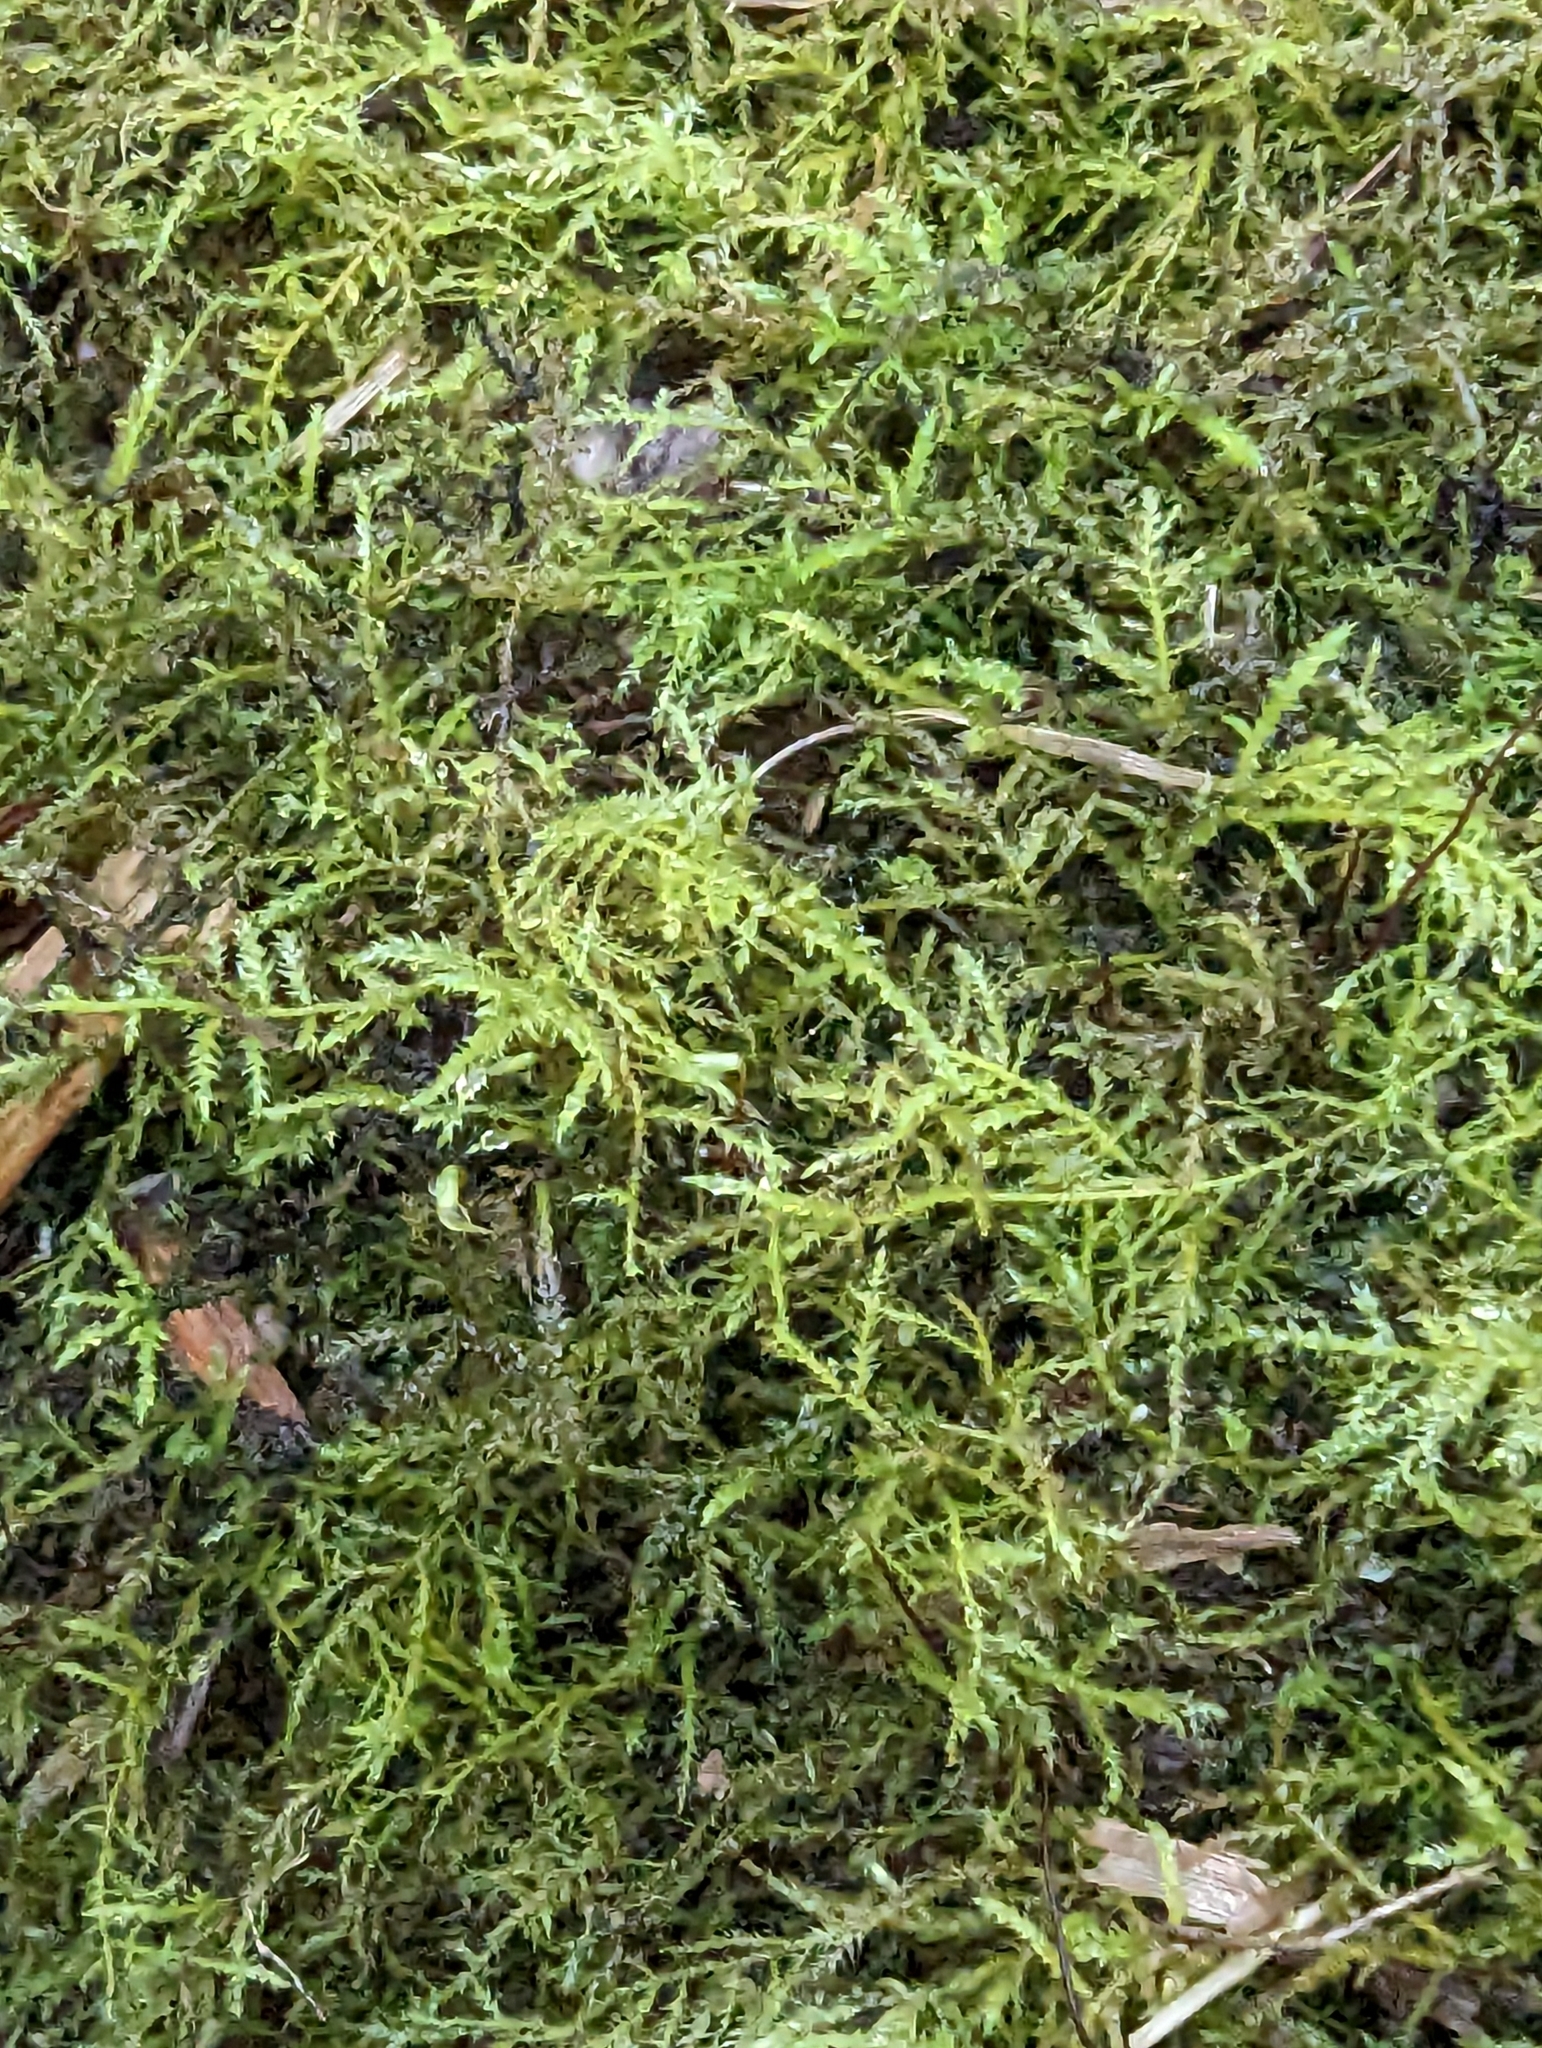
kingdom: Plantae
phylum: Bryophyta
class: Bryopsida
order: Hypnales
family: Brachytheciaceae
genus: Kindbergia
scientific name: Kindbergia praelonga
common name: Slender beaked moss
